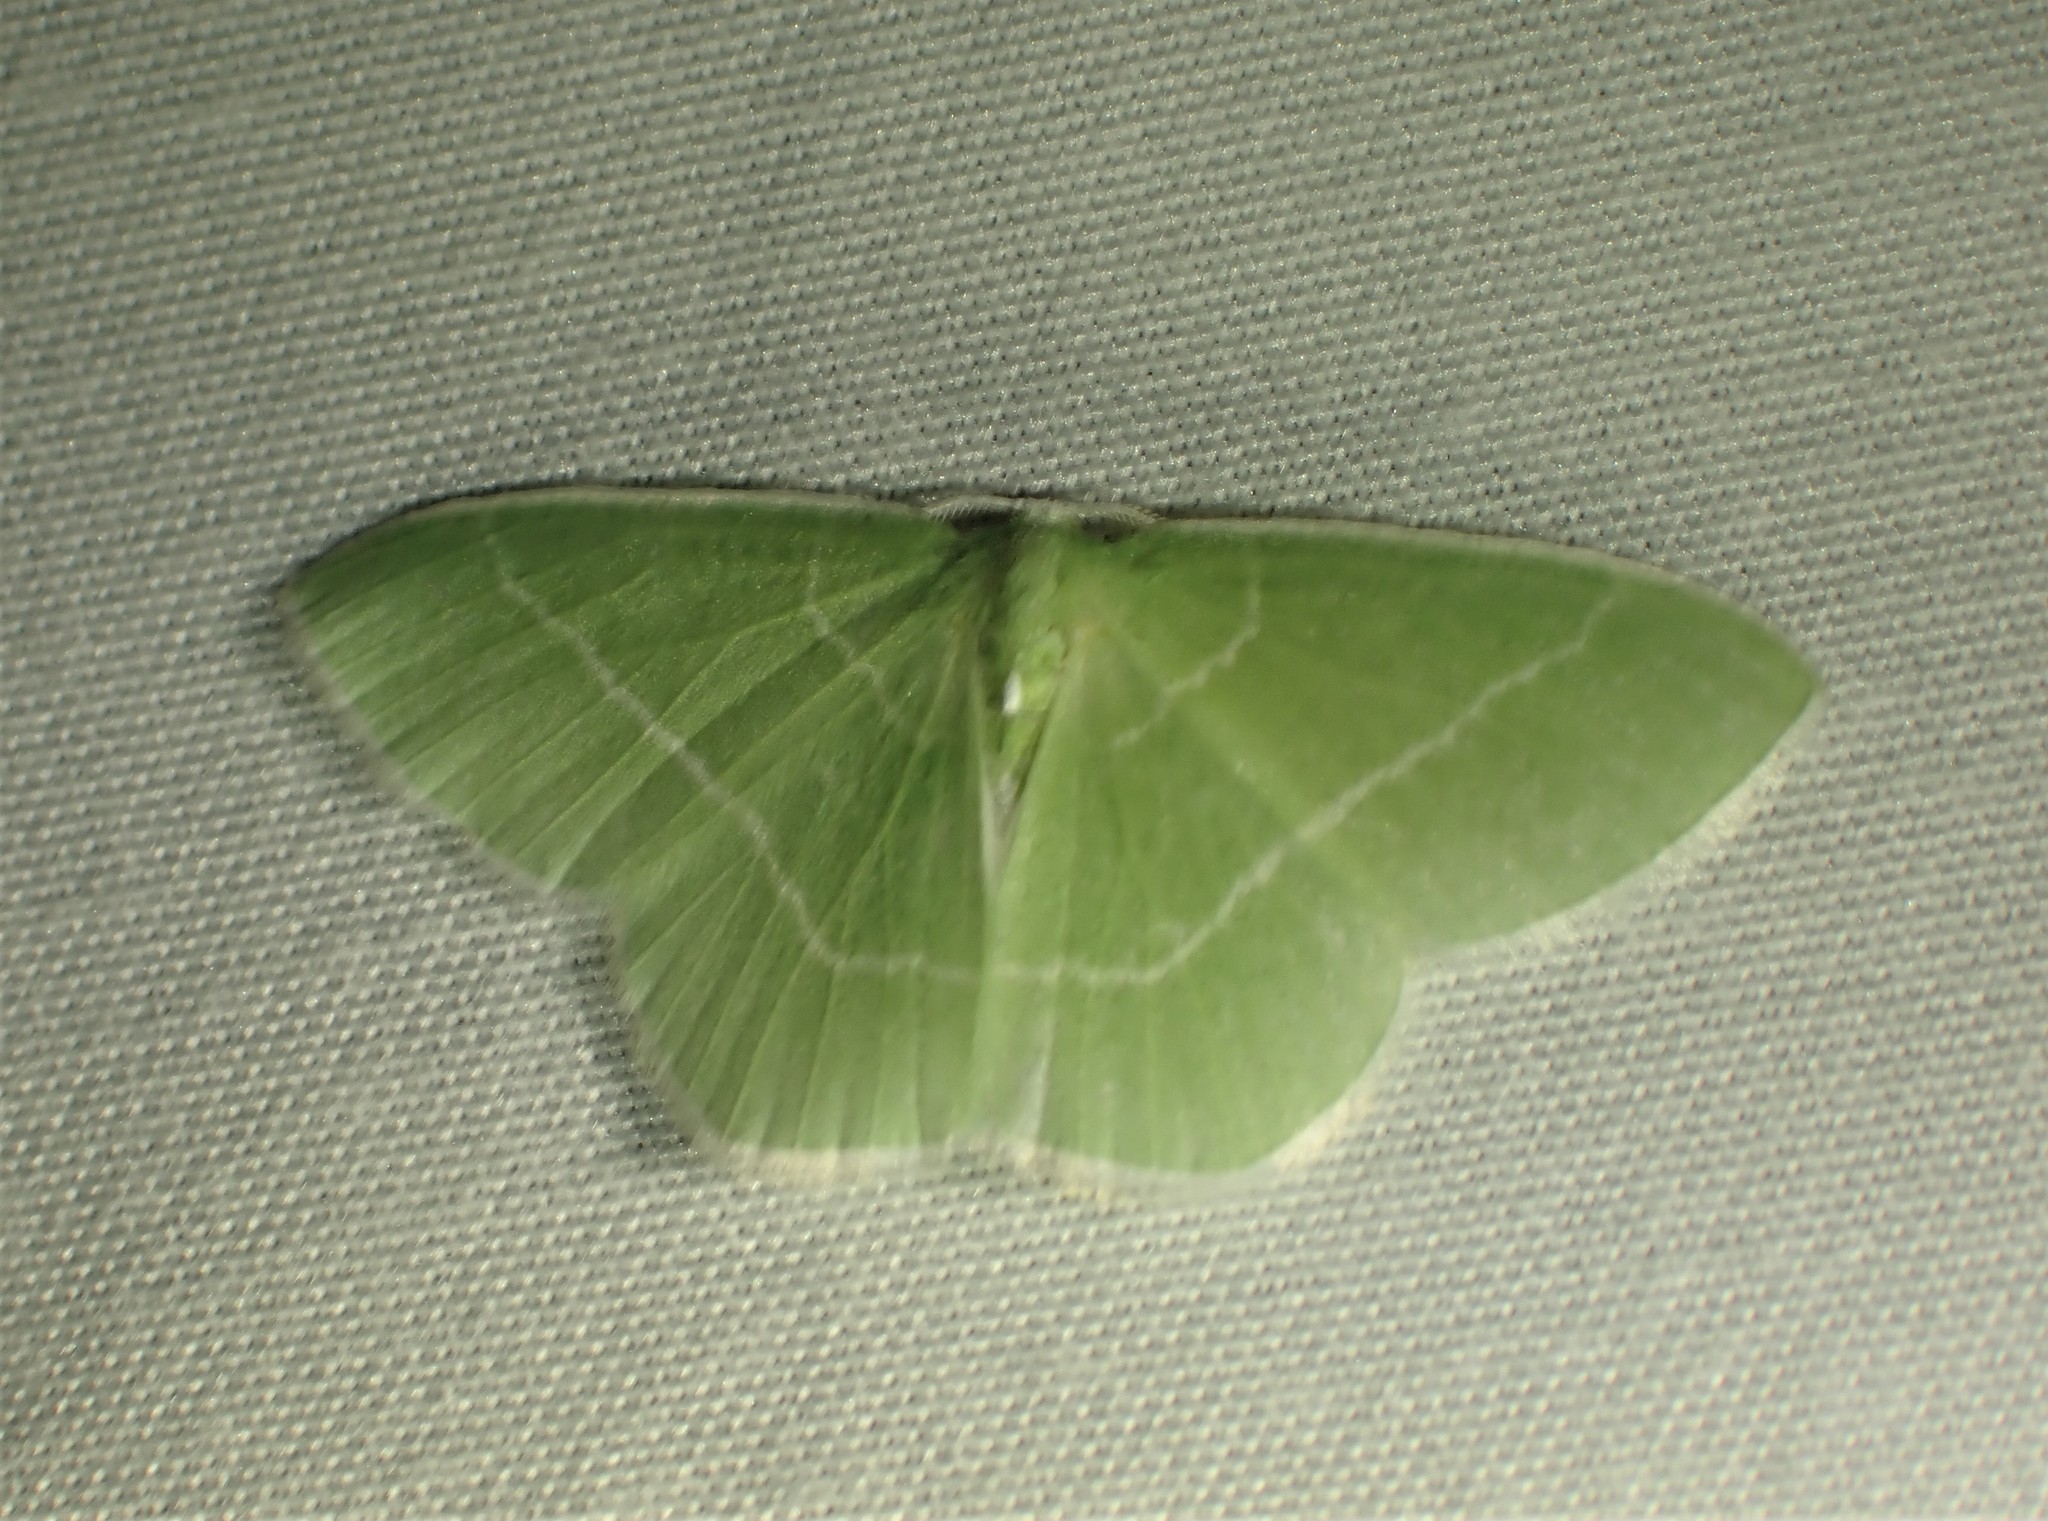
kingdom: Animalia
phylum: Arthropoda
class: Insecta
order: Lepidoptera
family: Geometridae
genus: Nemoria
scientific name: Nemoria mimosaria
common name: White-fringed emerald
